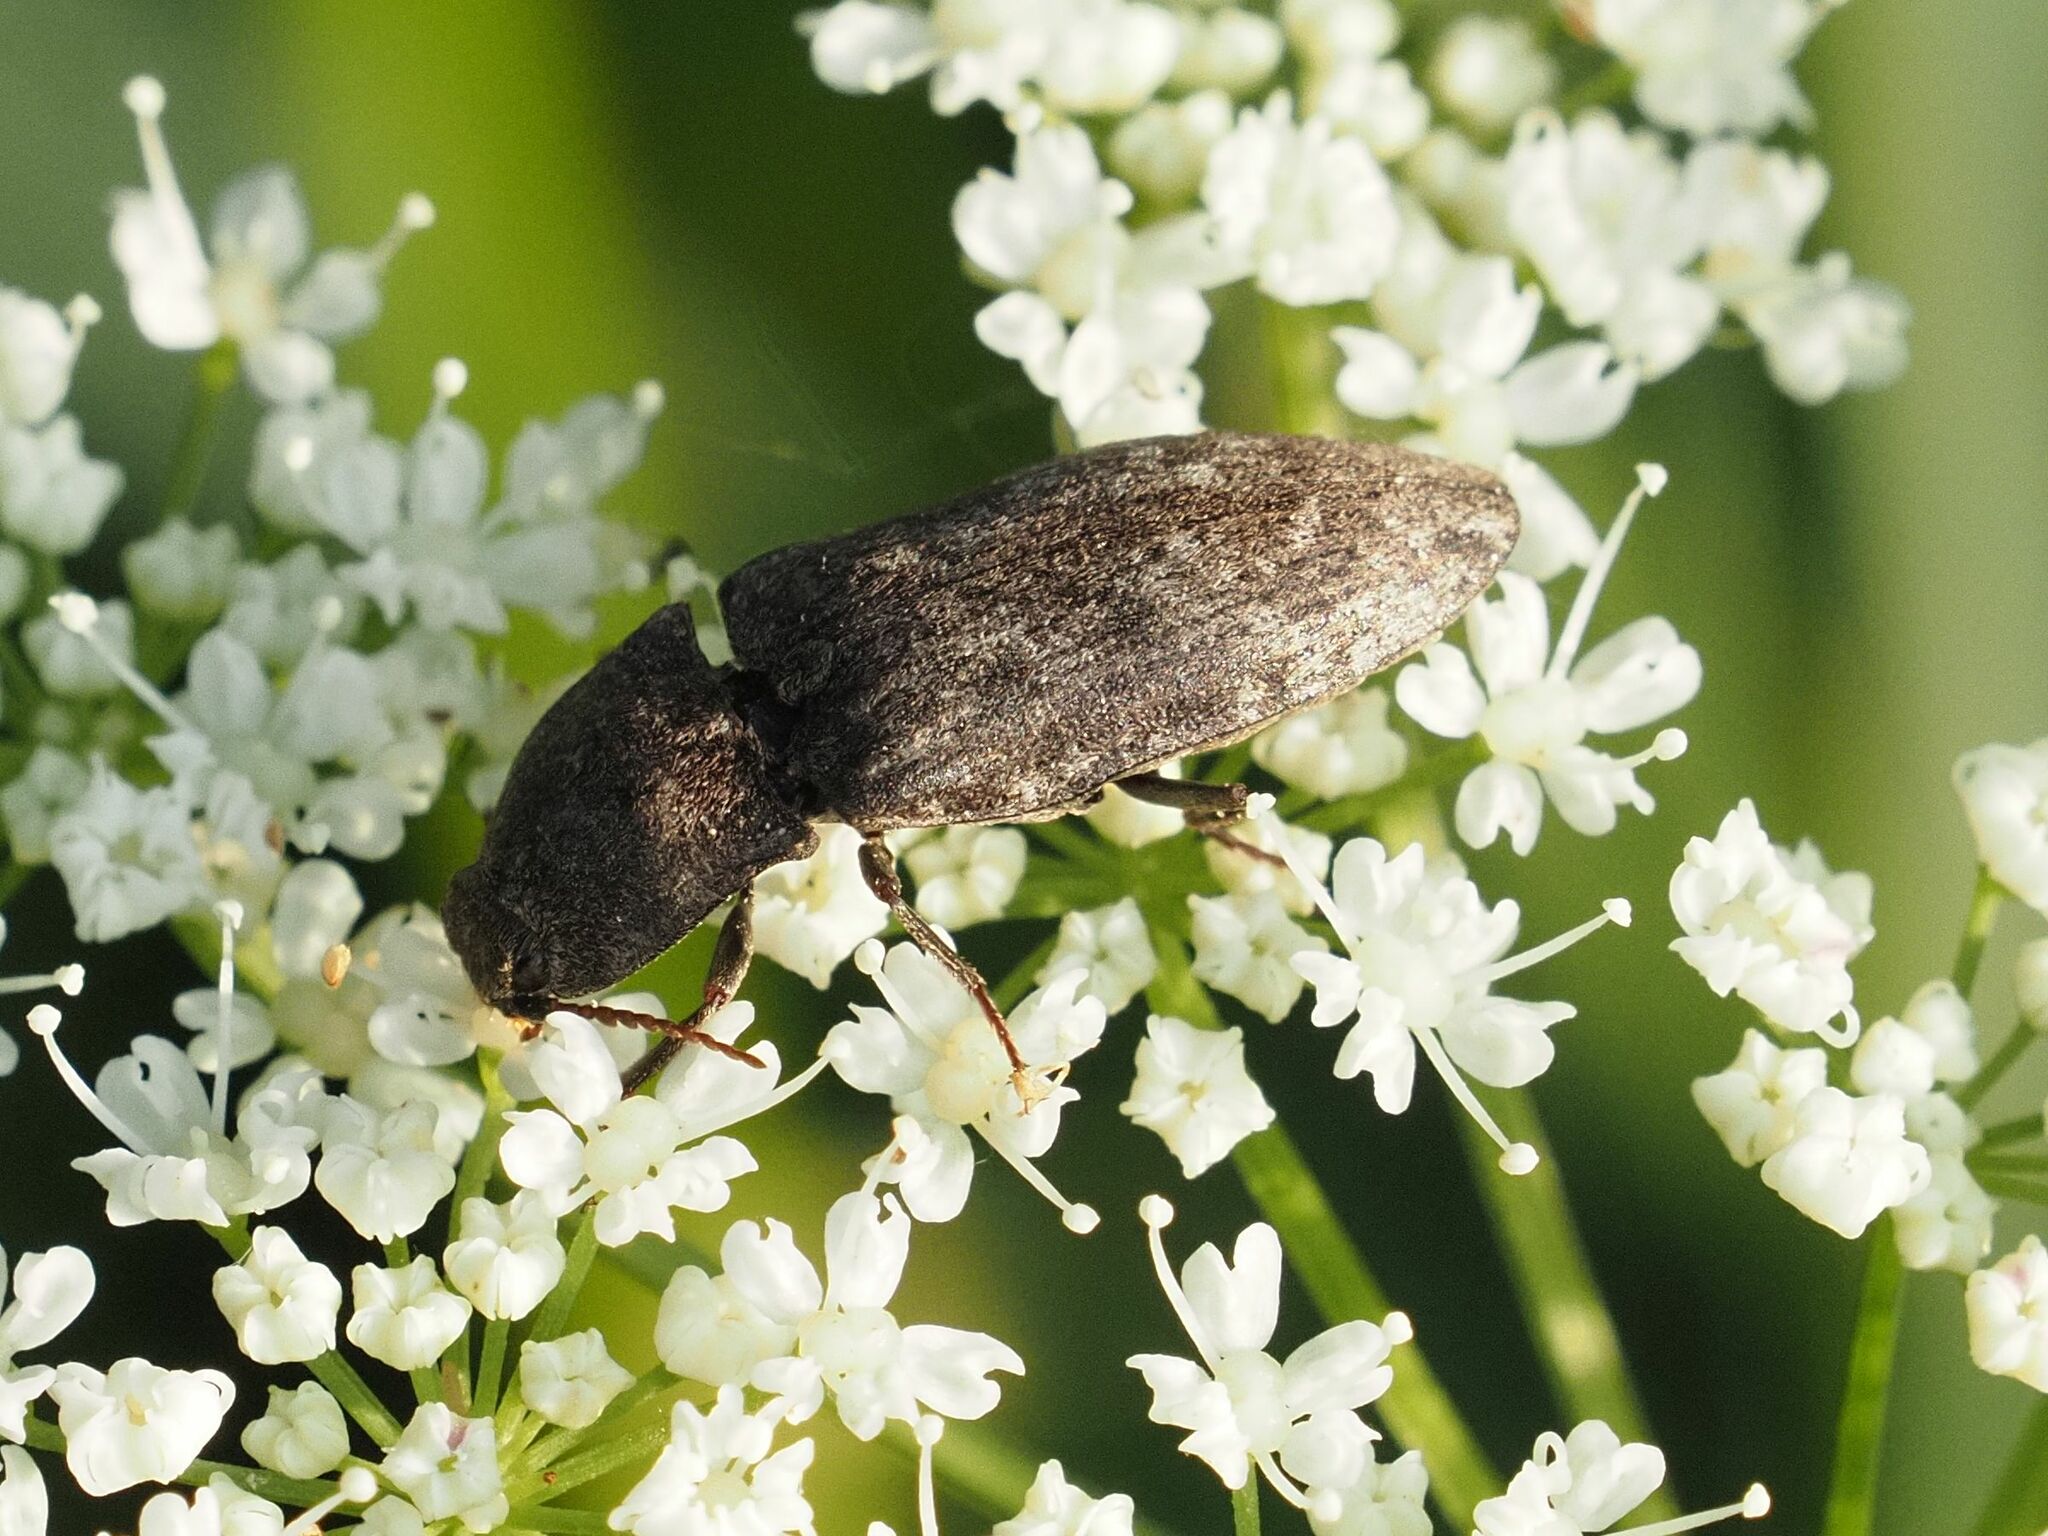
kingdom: Animalia
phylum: Arthropoda
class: Insecta
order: Coleoptera
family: Elateridae
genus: Agrypnus
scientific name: Agrypnus murinus
